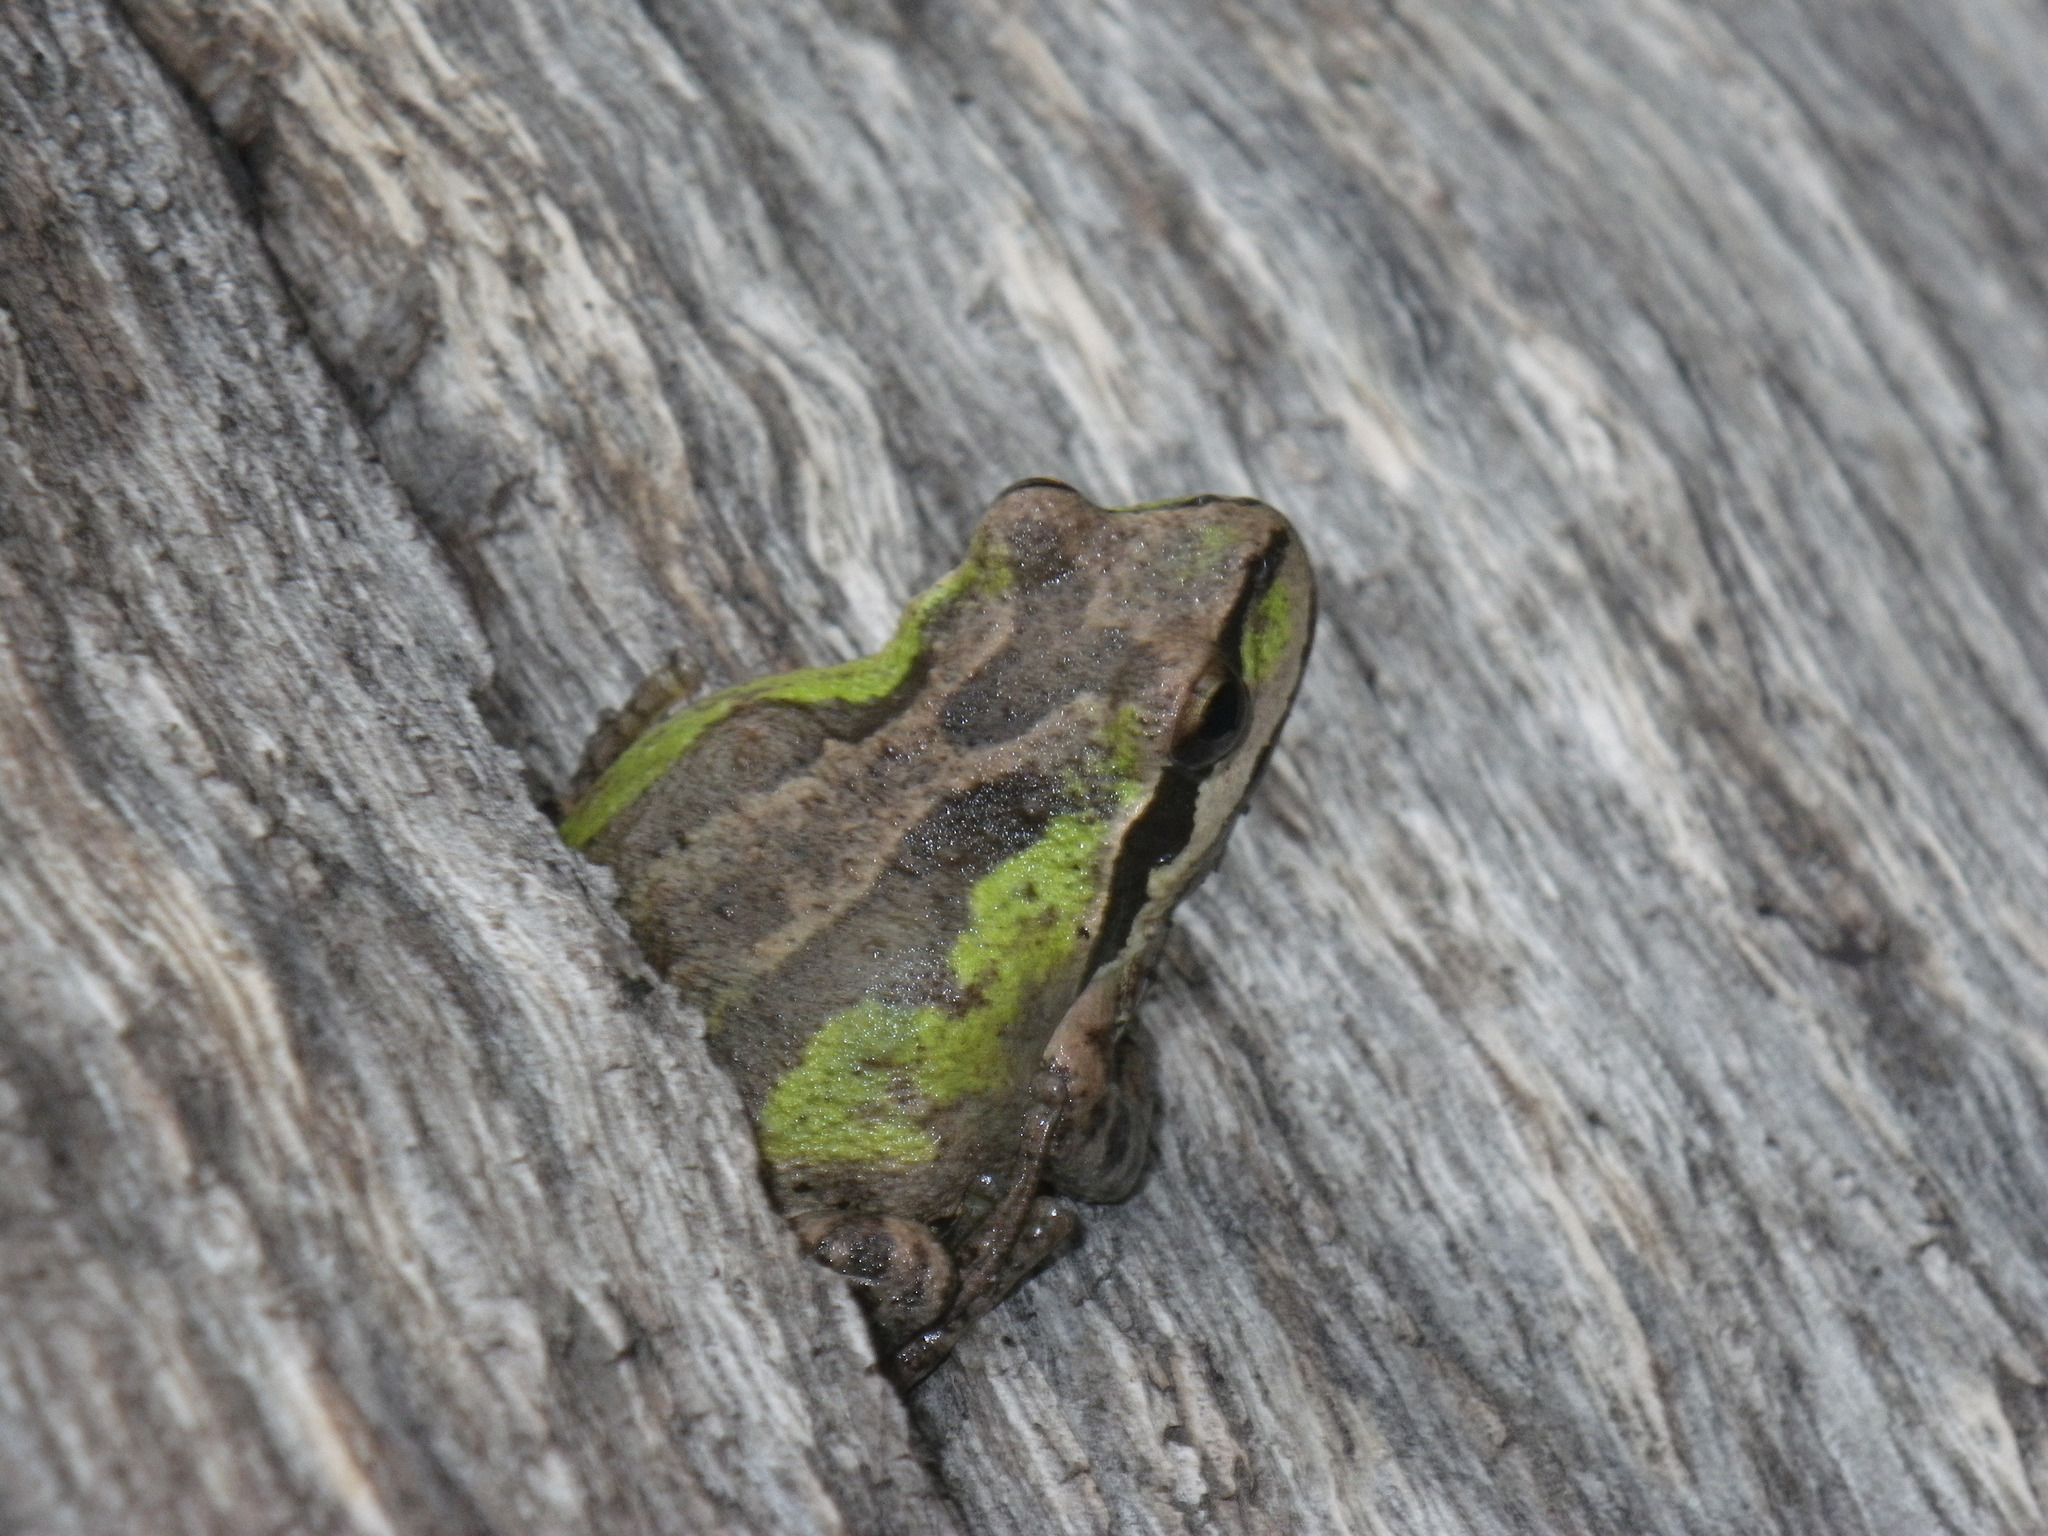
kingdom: Animalia
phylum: Chordata
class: Amphibia
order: Anura
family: Hylidae
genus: Pseudacris
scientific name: Pseudacris regilla
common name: Pacific chorus frog
